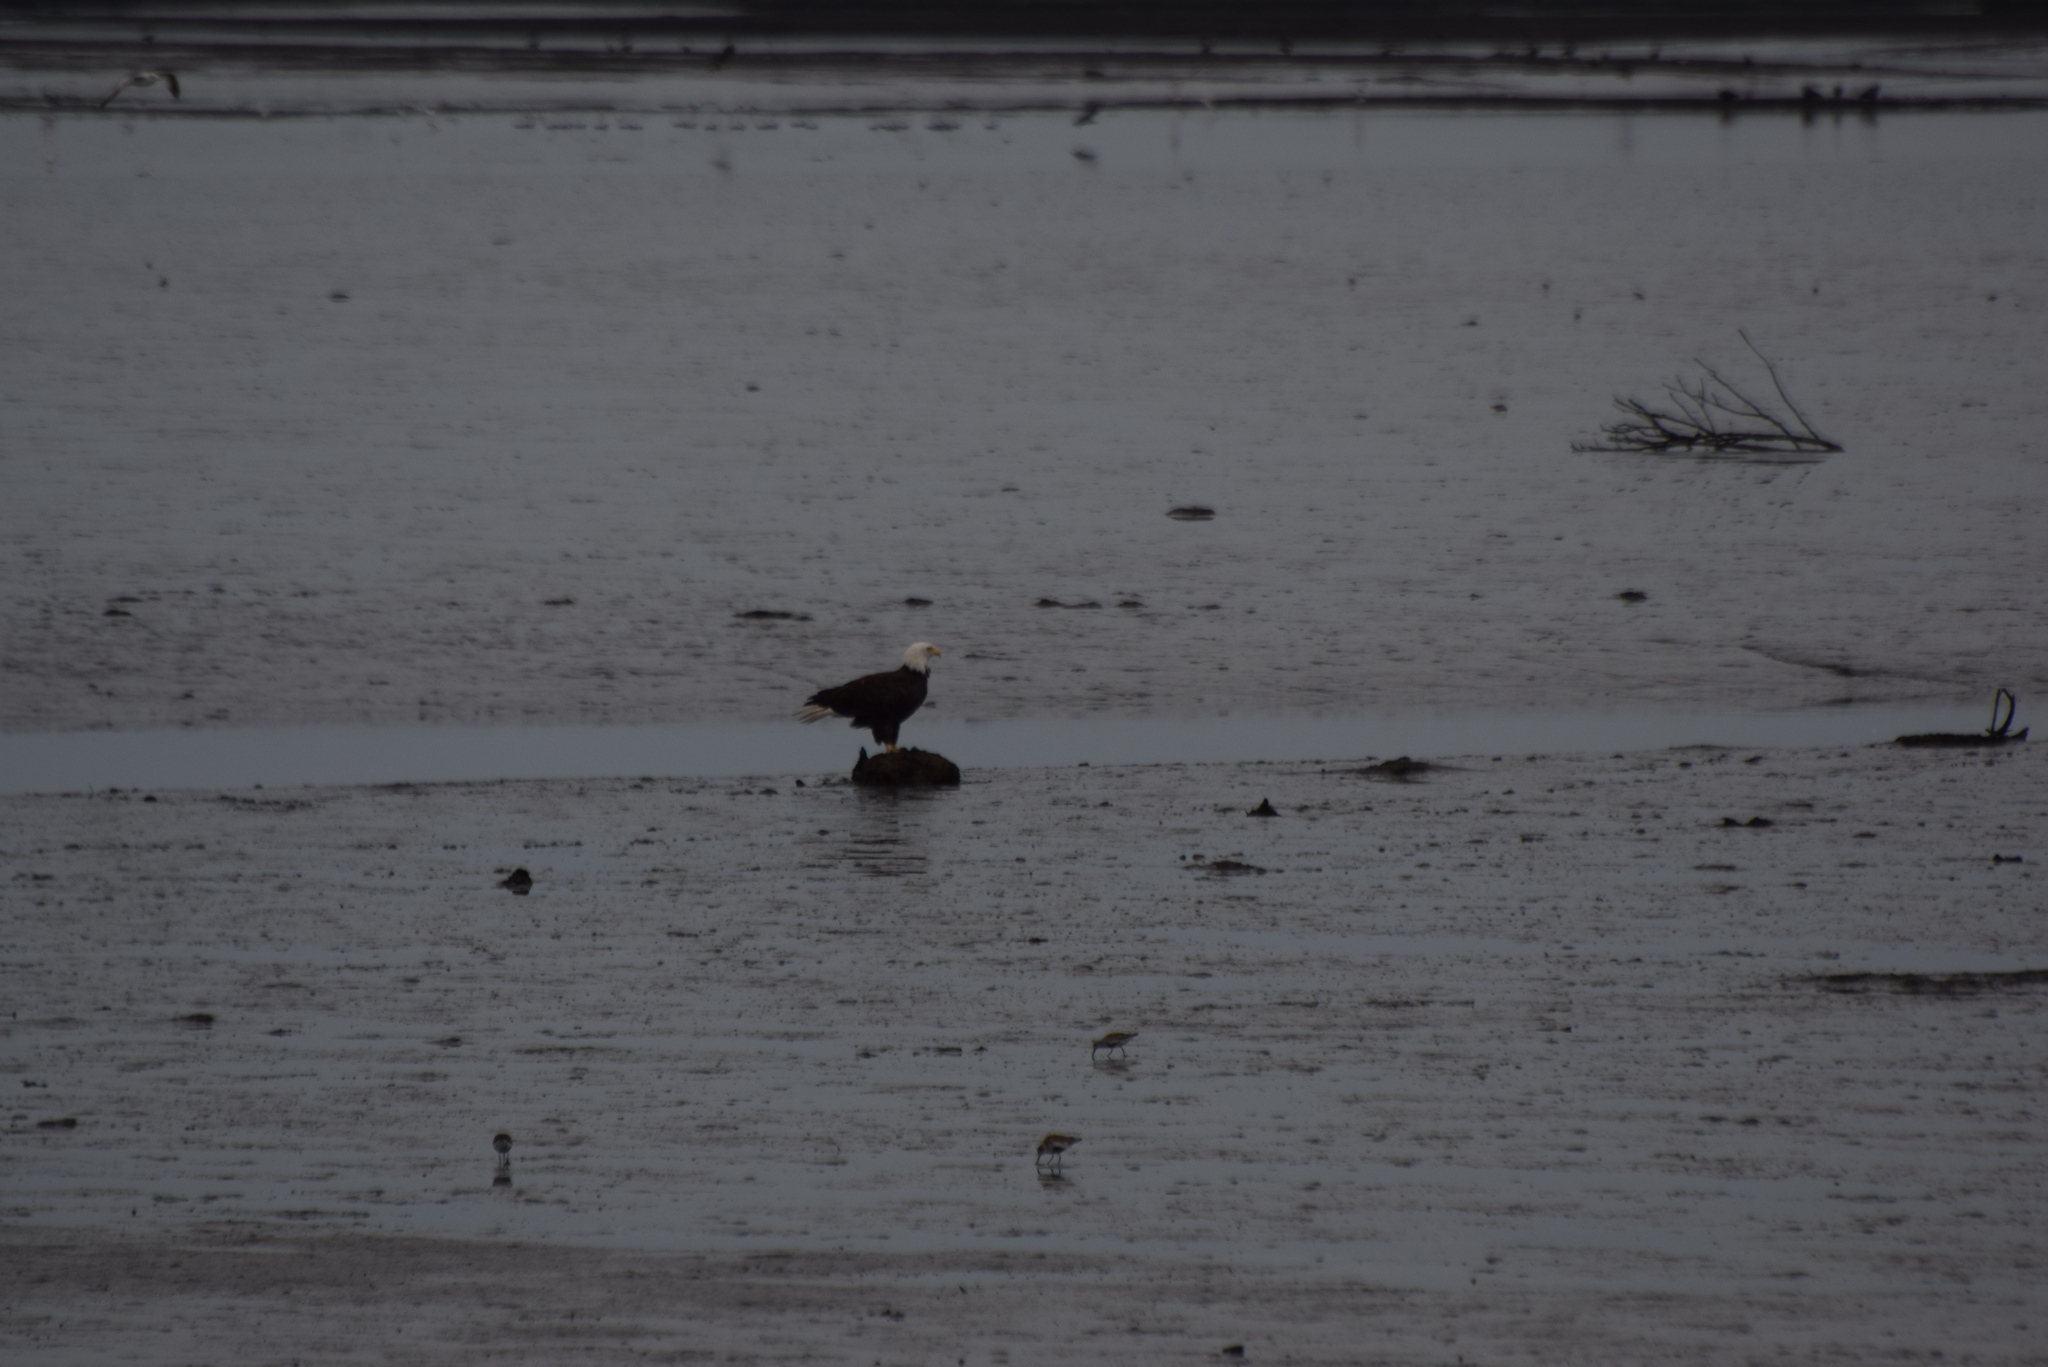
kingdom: Animalia
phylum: Chordata
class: Aves
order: Accipitriformes
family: Accipitridae
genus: Haliaeetus
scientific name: Haliaeetus leucocephalus
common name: Bald eagle
